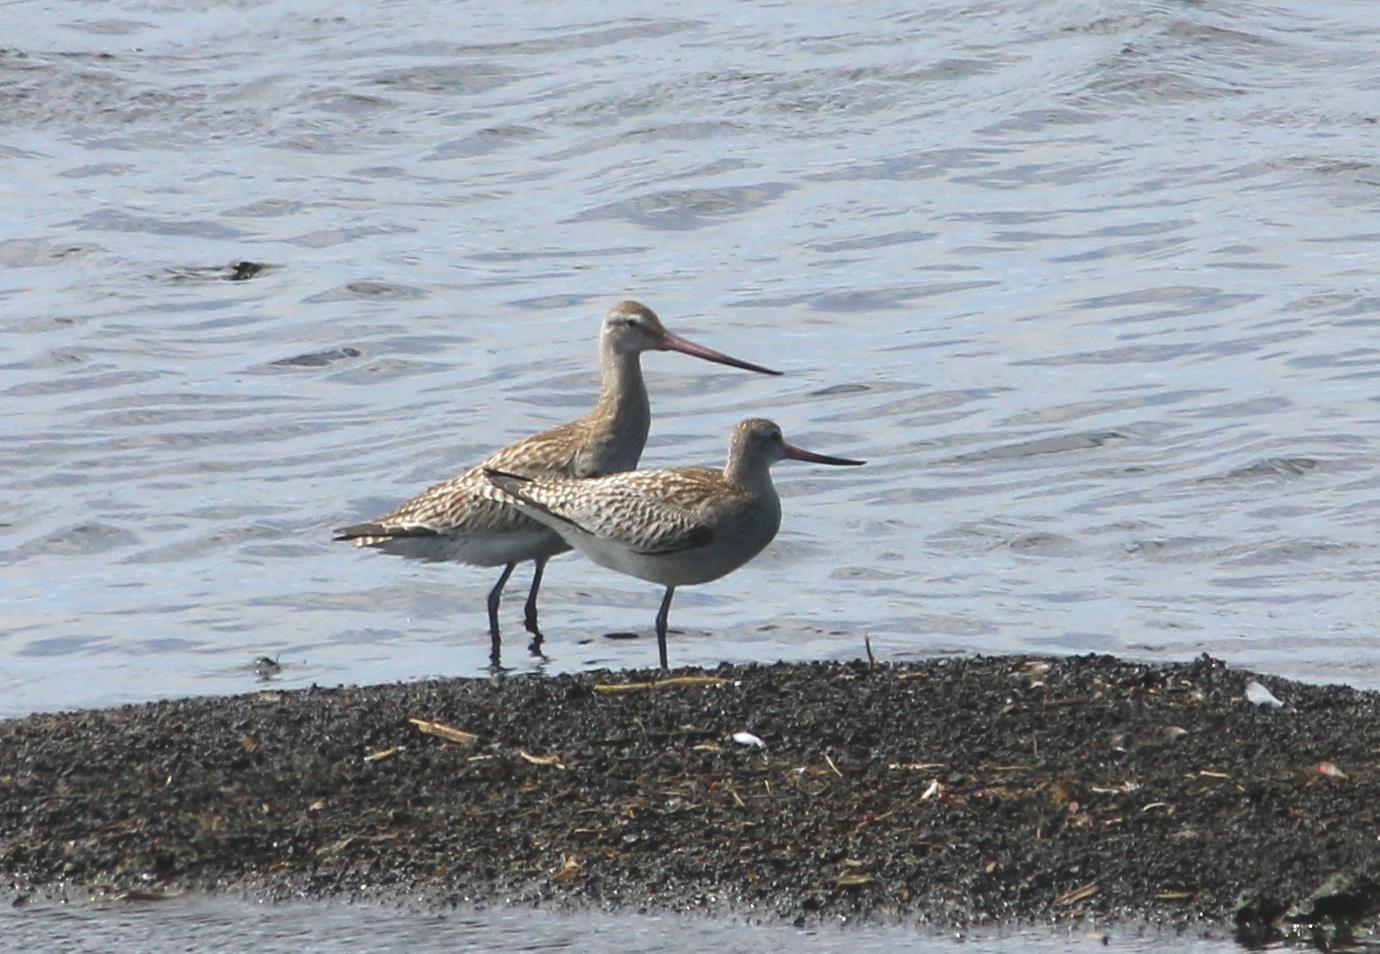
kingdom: Animalia
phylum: Chordata
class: Aves
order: Charadriiformes
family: Scolopacidae
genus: Limosa
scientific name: Limosa lapponica
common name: Bar-tailed godwit
